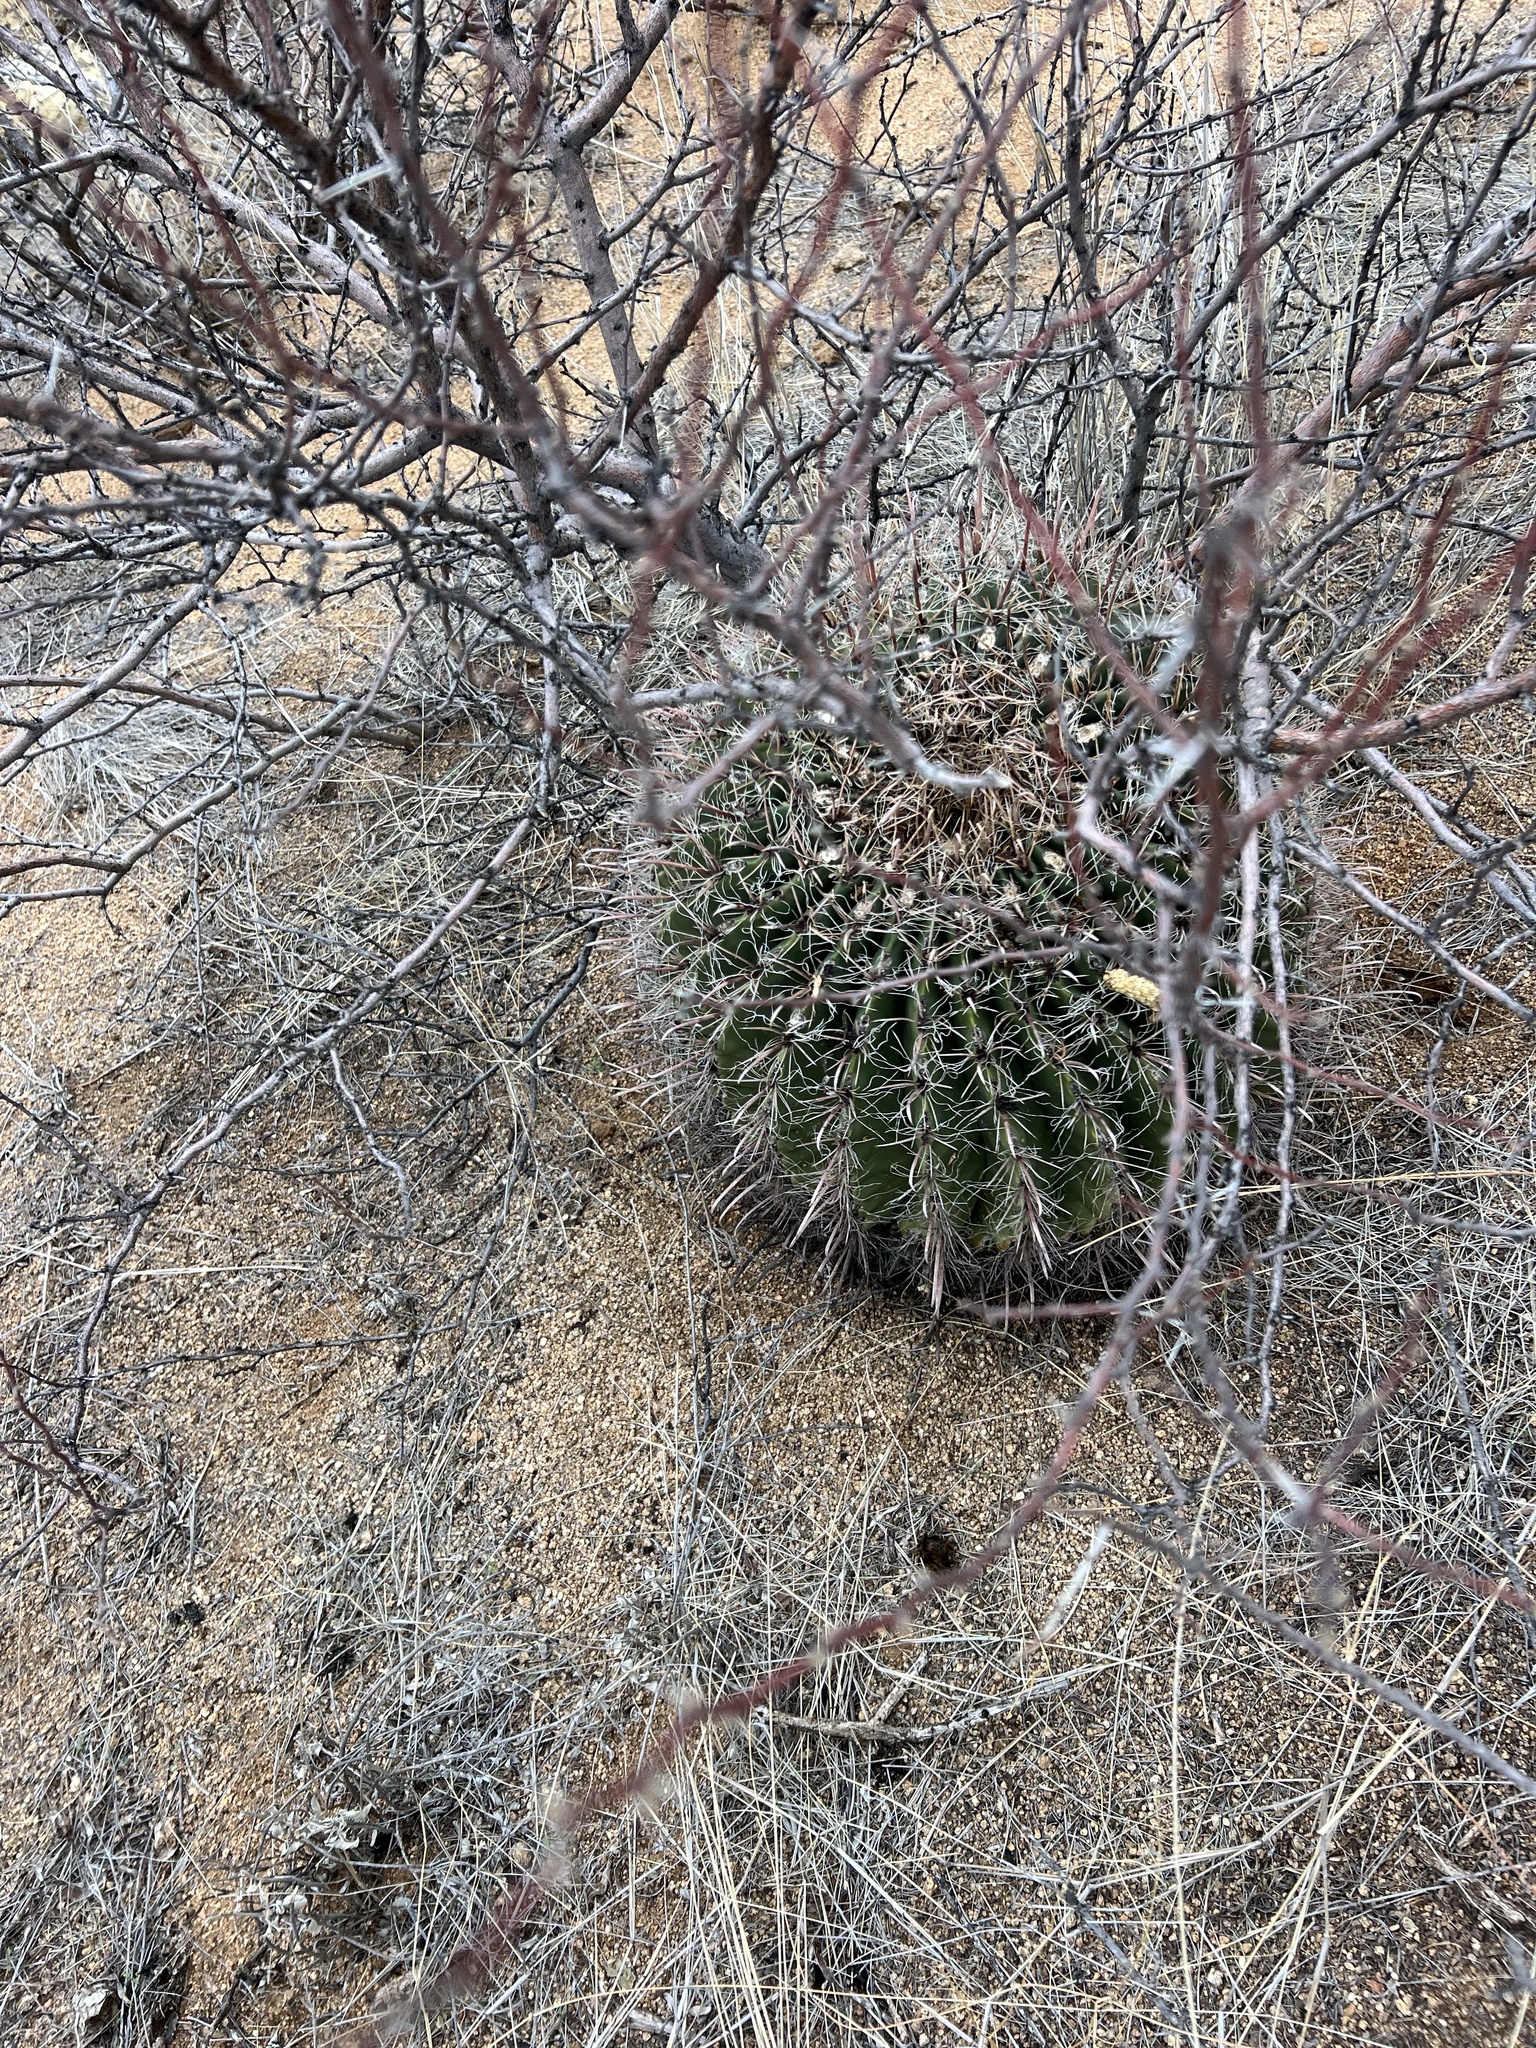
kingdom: Plantae
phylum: Tracheophyta
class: Magnoliopsida
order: Caryophyllales
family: Cactaceae
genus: Ferocactus
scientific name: Ferocactus wislizeni
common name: Candy barrel cactus
